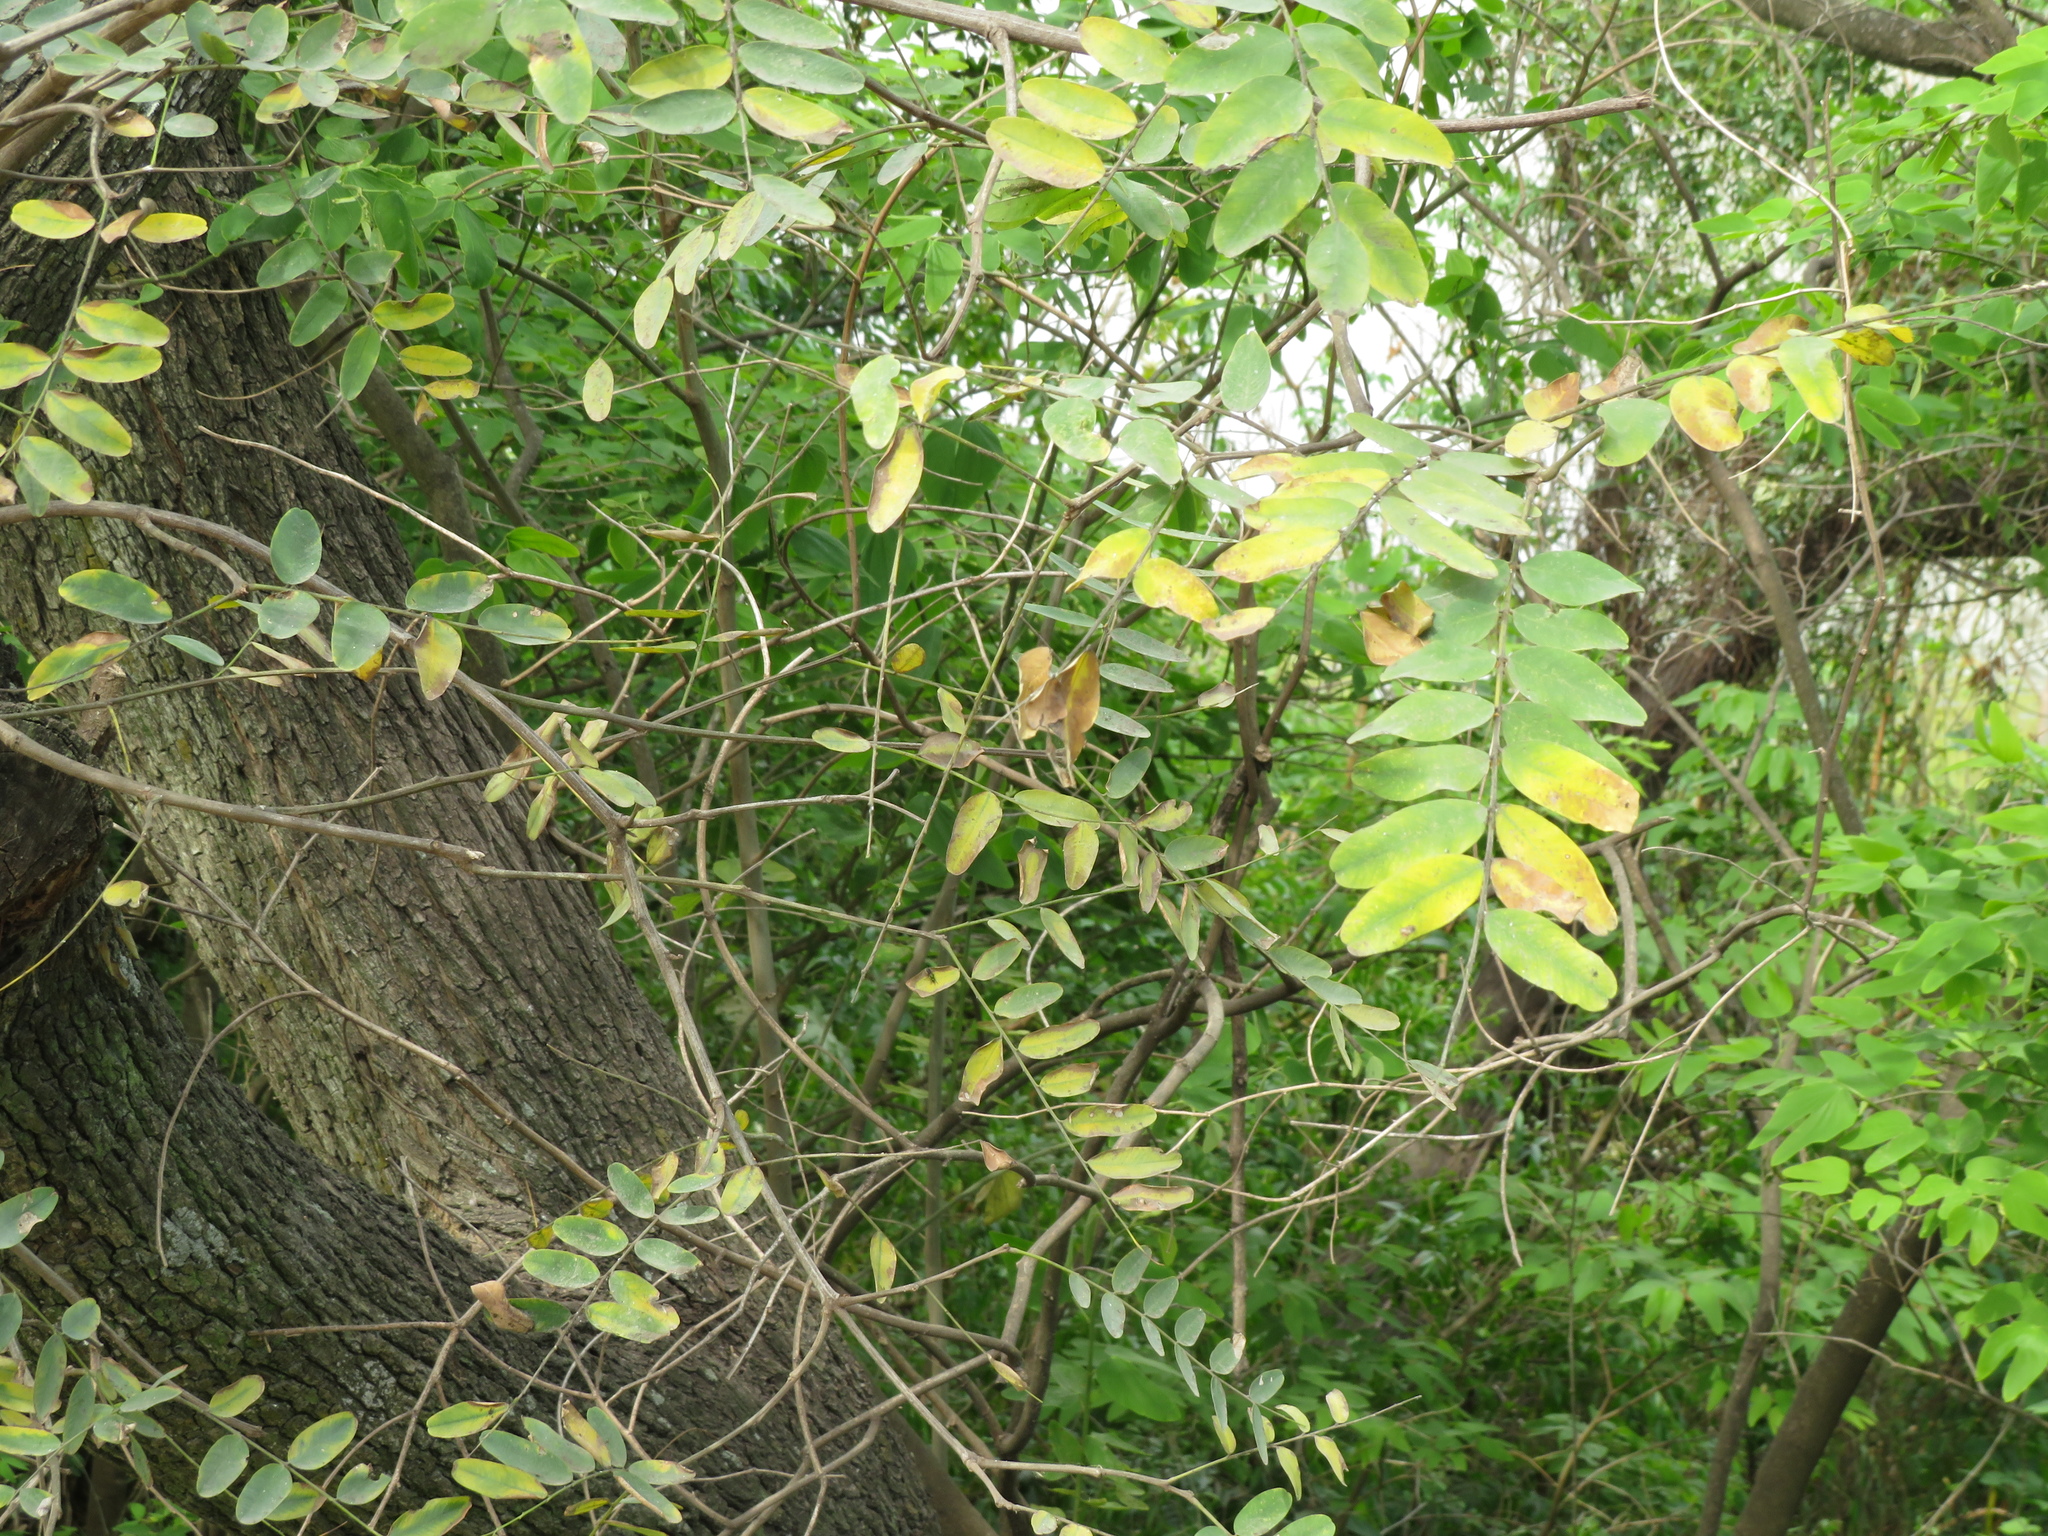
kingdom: Plantae
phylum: Tracheophyta
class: Magnoliopsida
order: Fabales
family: Fabaceae
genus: Tipuana
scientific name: Tipuana tipu
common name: Tiputree
